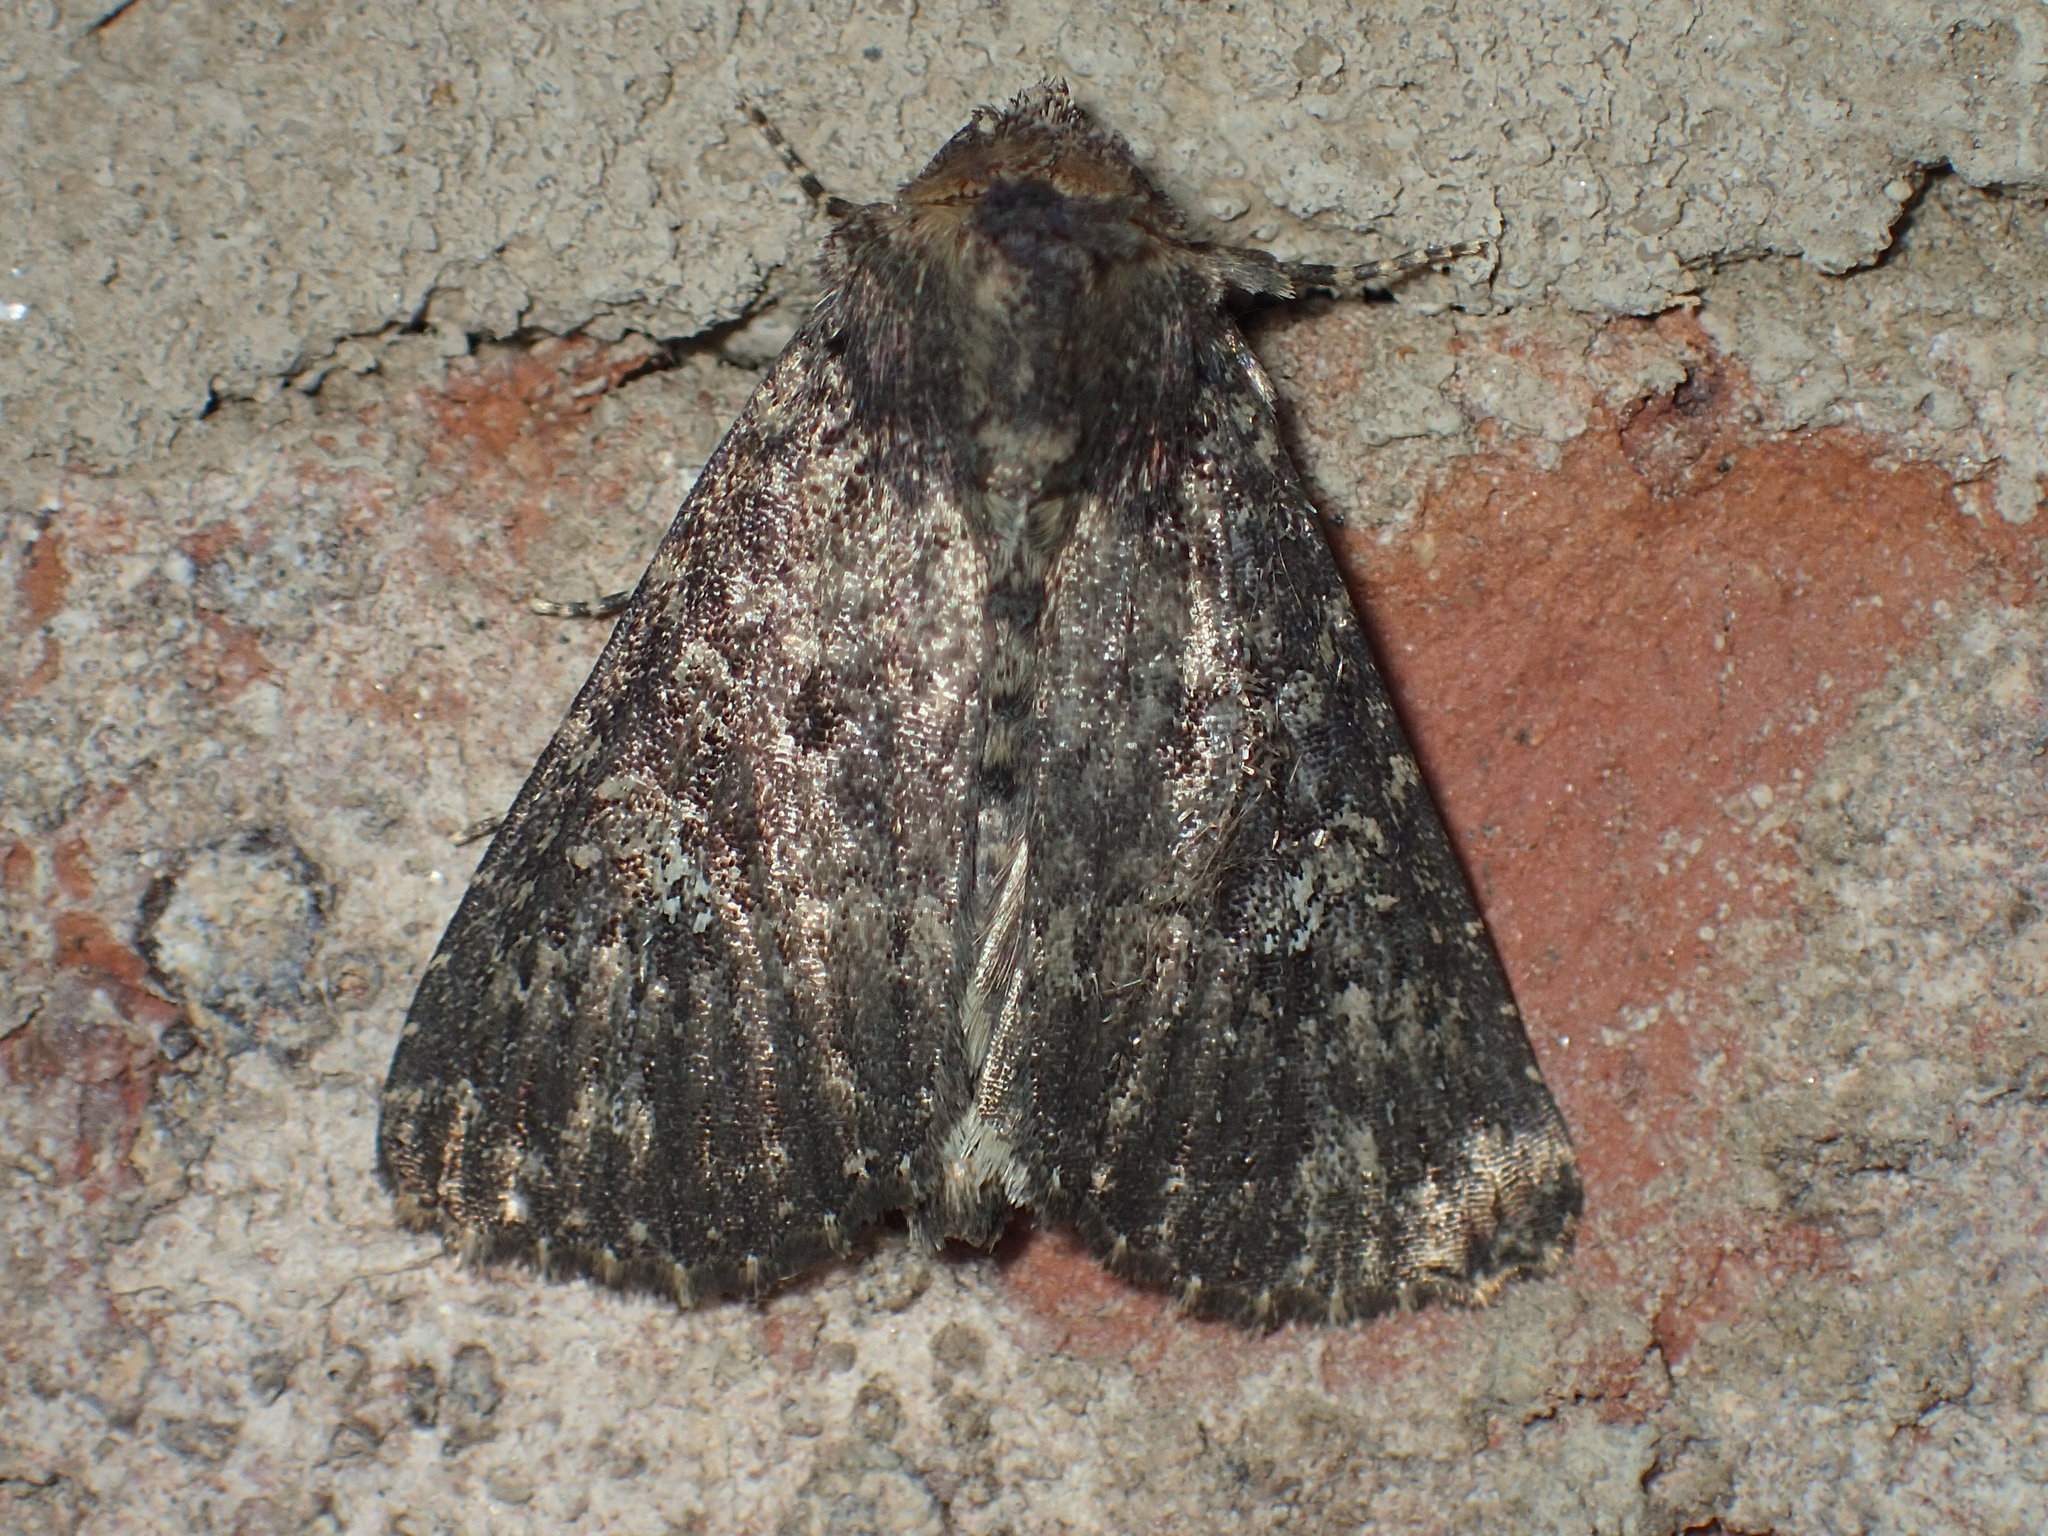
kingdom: Animalia
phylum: Arthropoda
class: Insecta
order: Lepidoptera
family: Noctuidae
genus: Condica
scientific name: Condica vecors
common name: Dusky groundling
